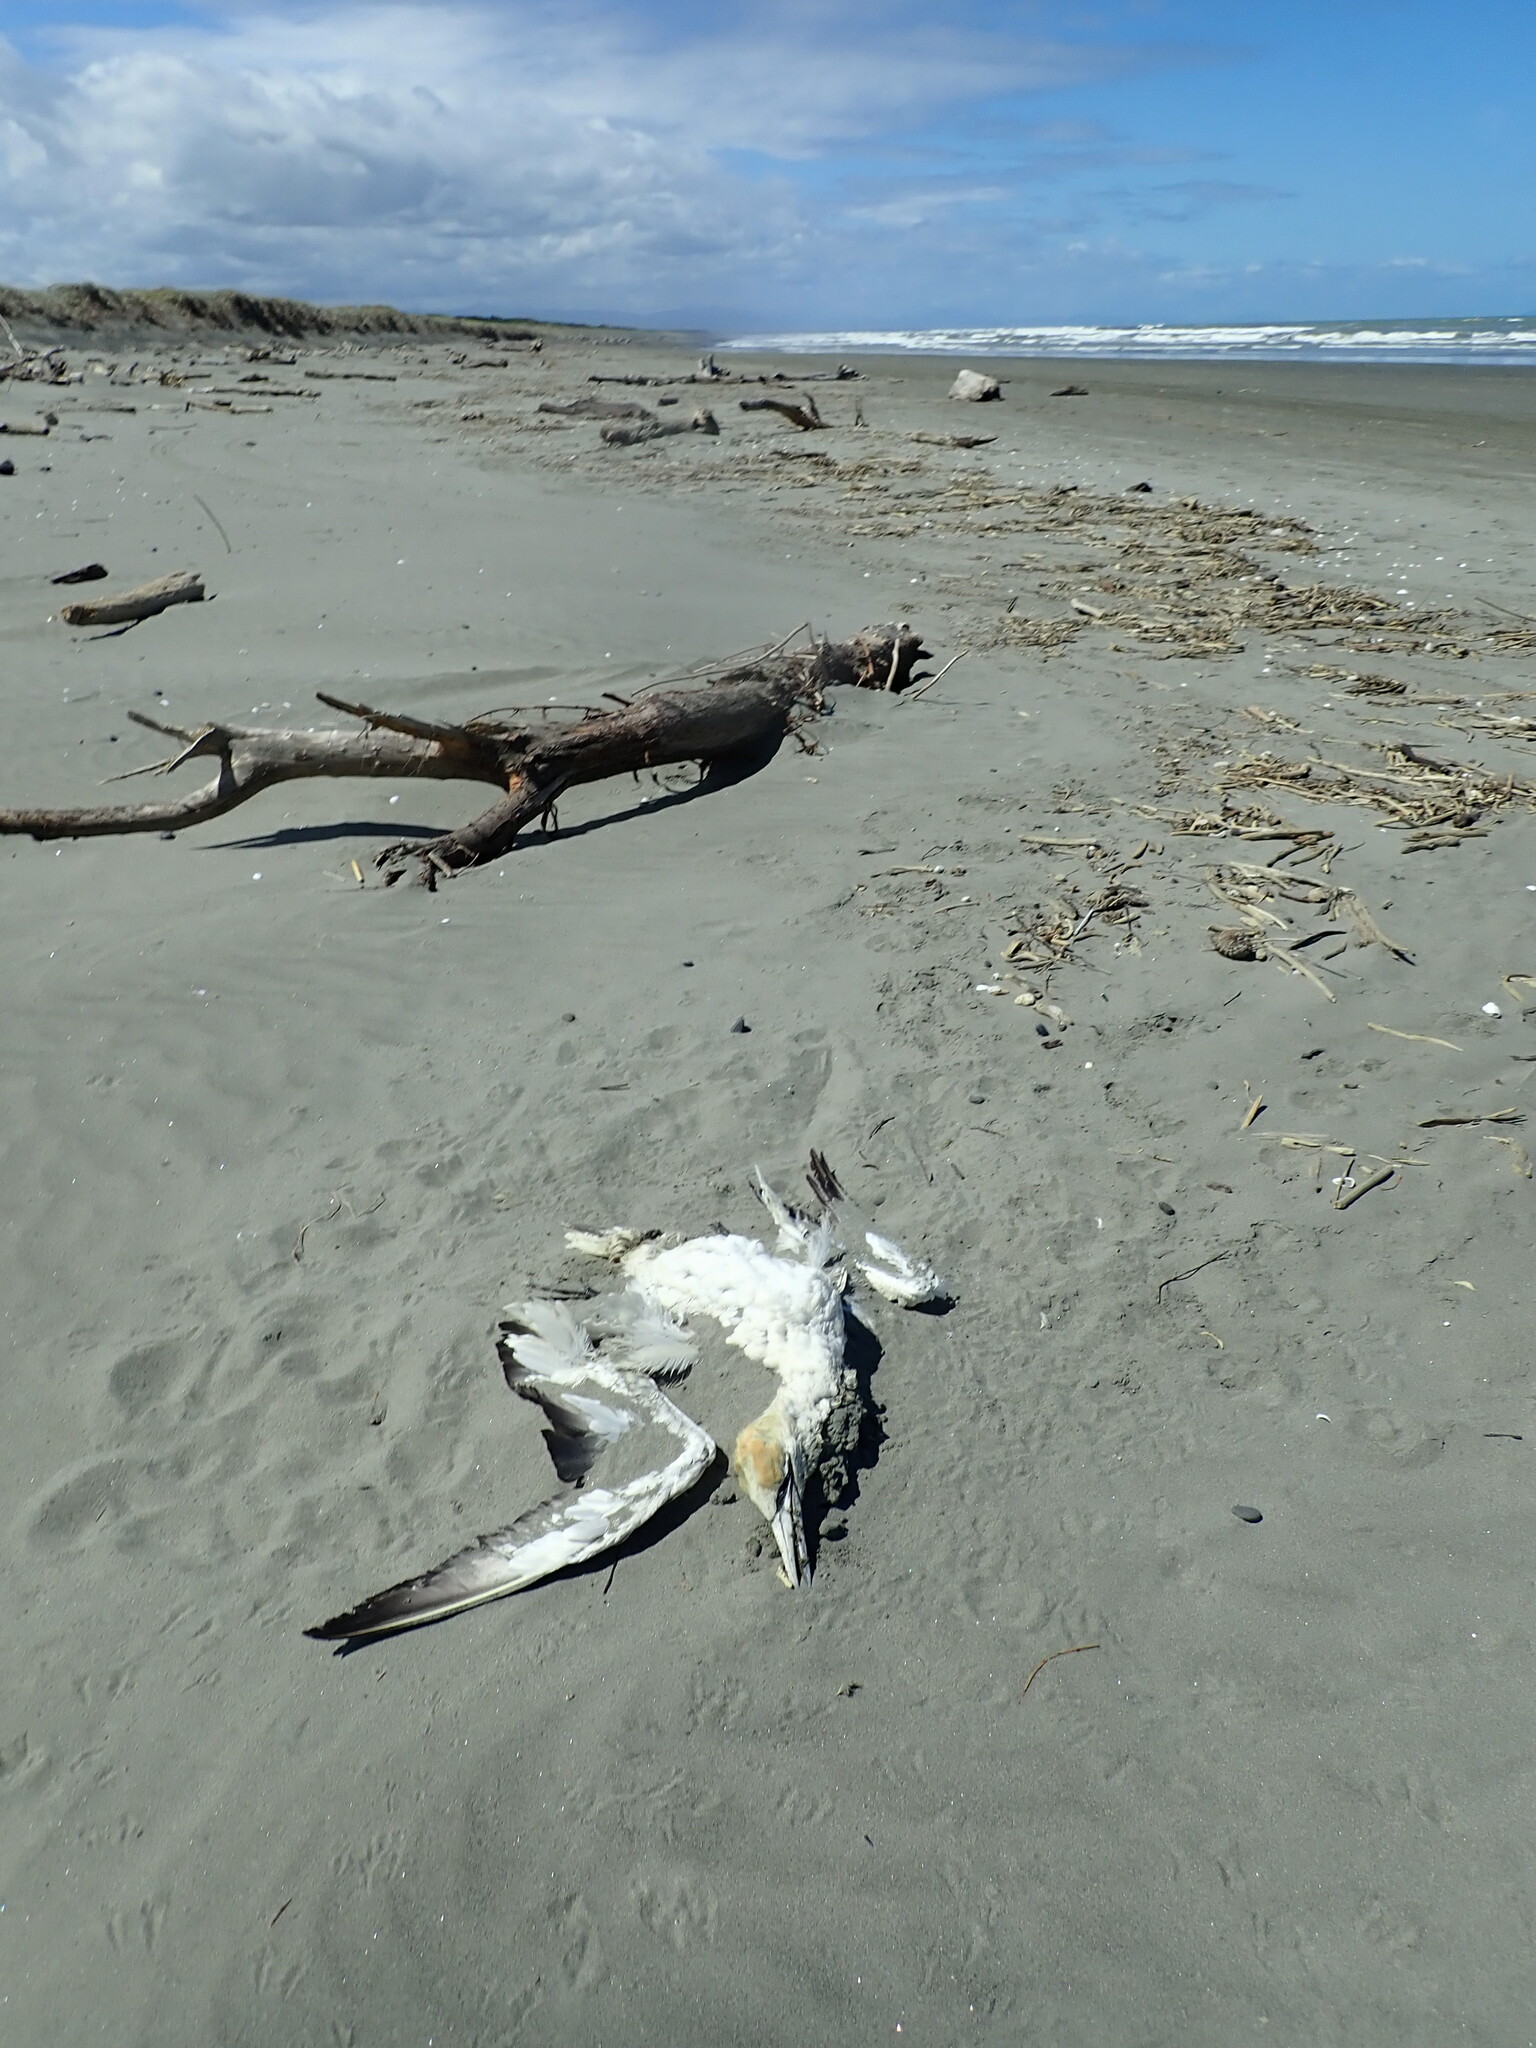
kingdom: Animalia
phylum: Chordata
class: Aves
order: Suliformes
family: Sulidae
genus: Morus
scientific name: Morus serrator
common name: Australasian gannet
